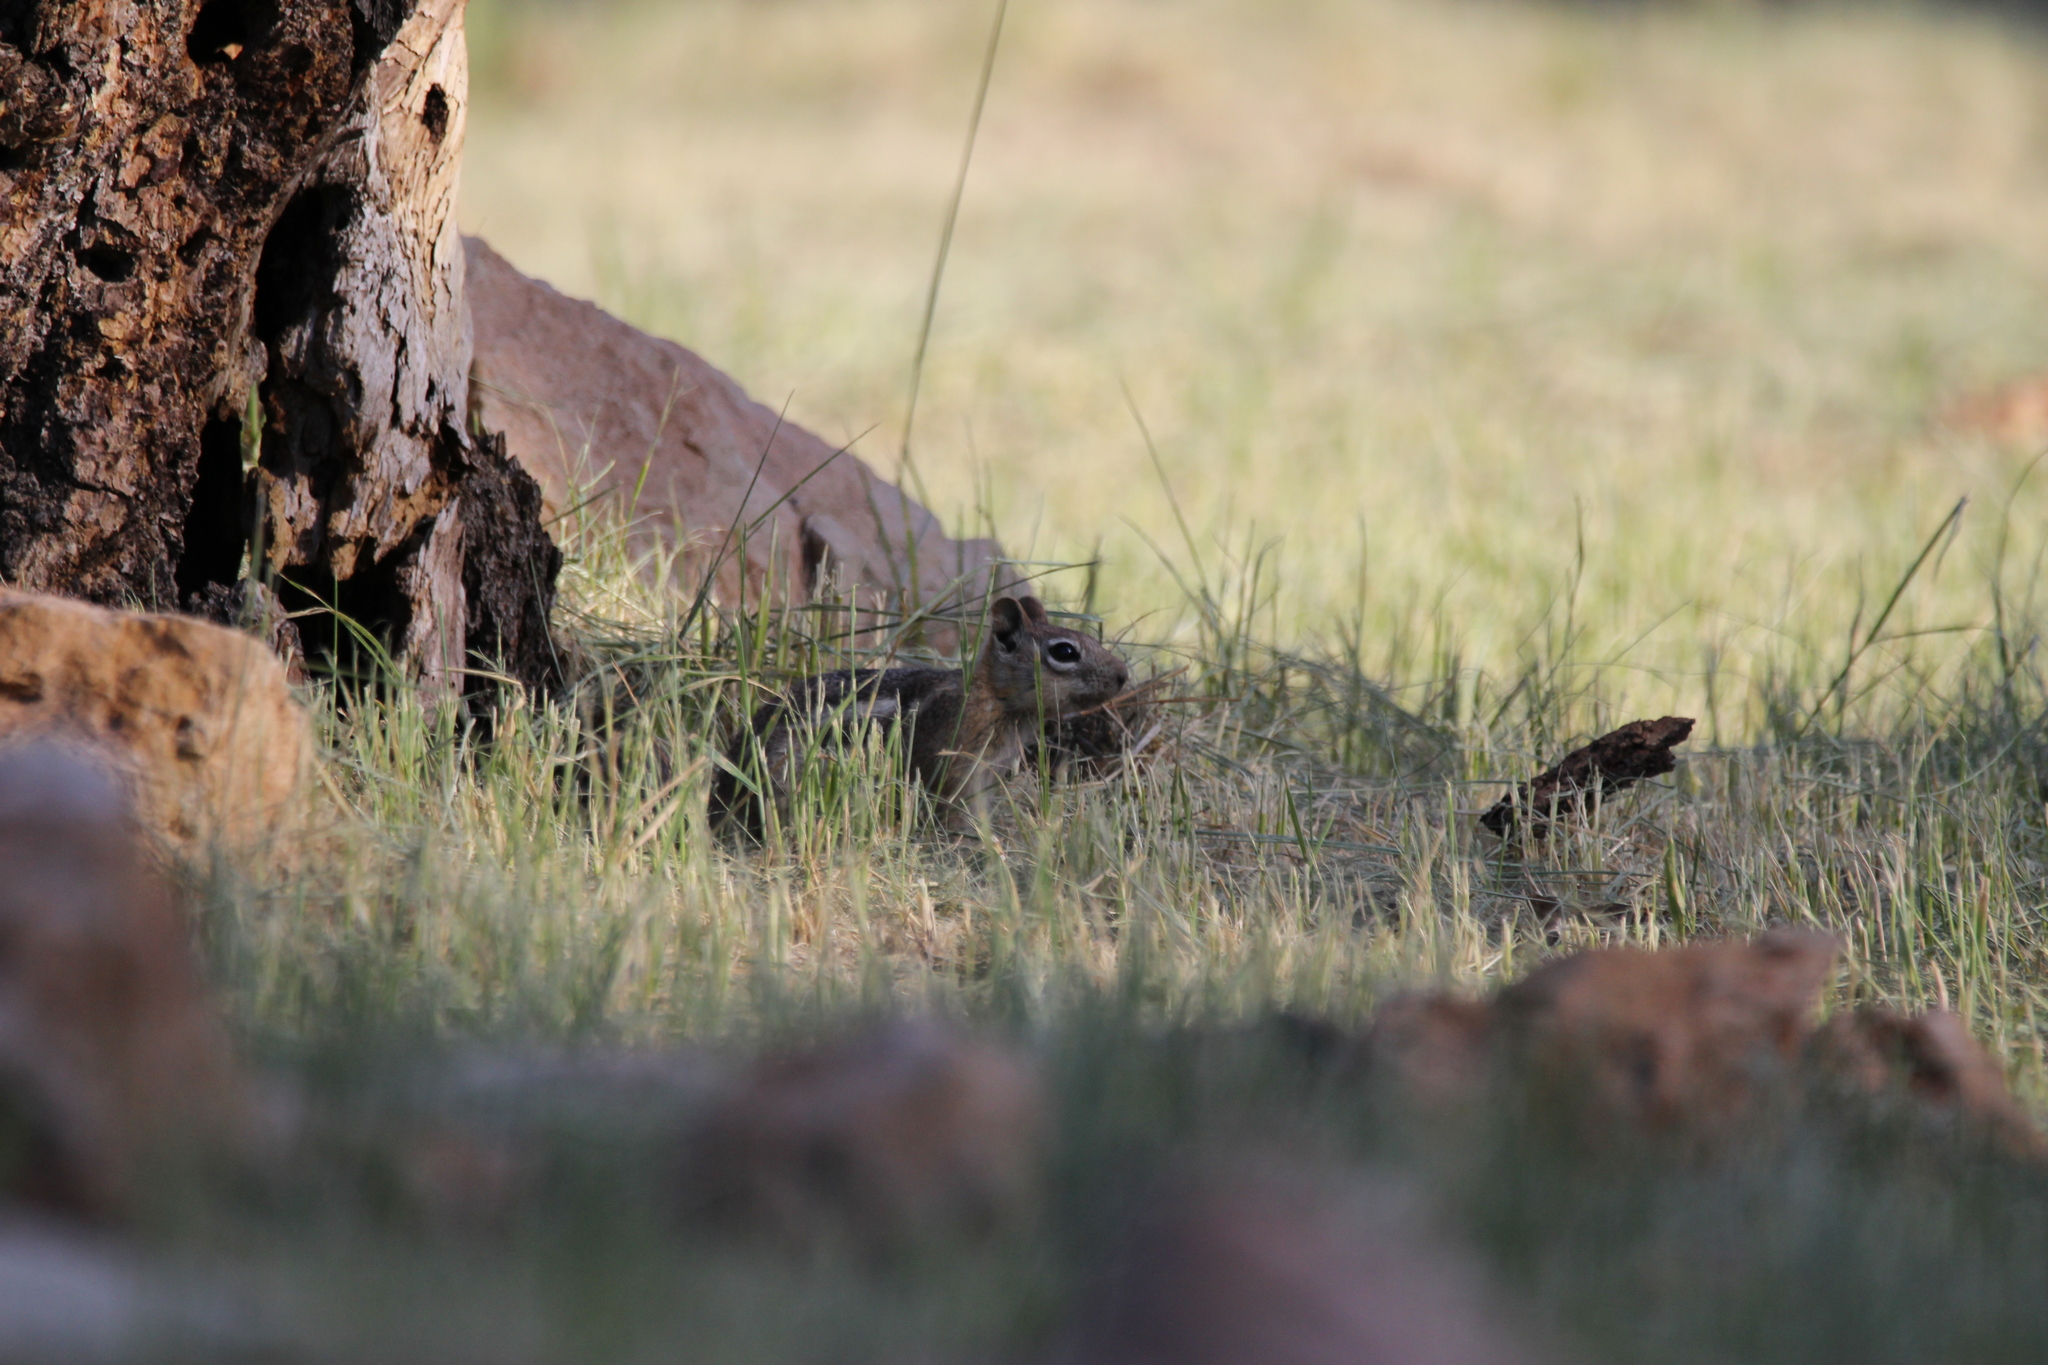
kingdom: Animalia
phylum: Chordata
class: Mammalia
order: Rodentia
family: Sciuridae
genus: Callospermophilus
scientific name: Callospermophilus lateralis
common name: Golden-mantled ground squirrel
